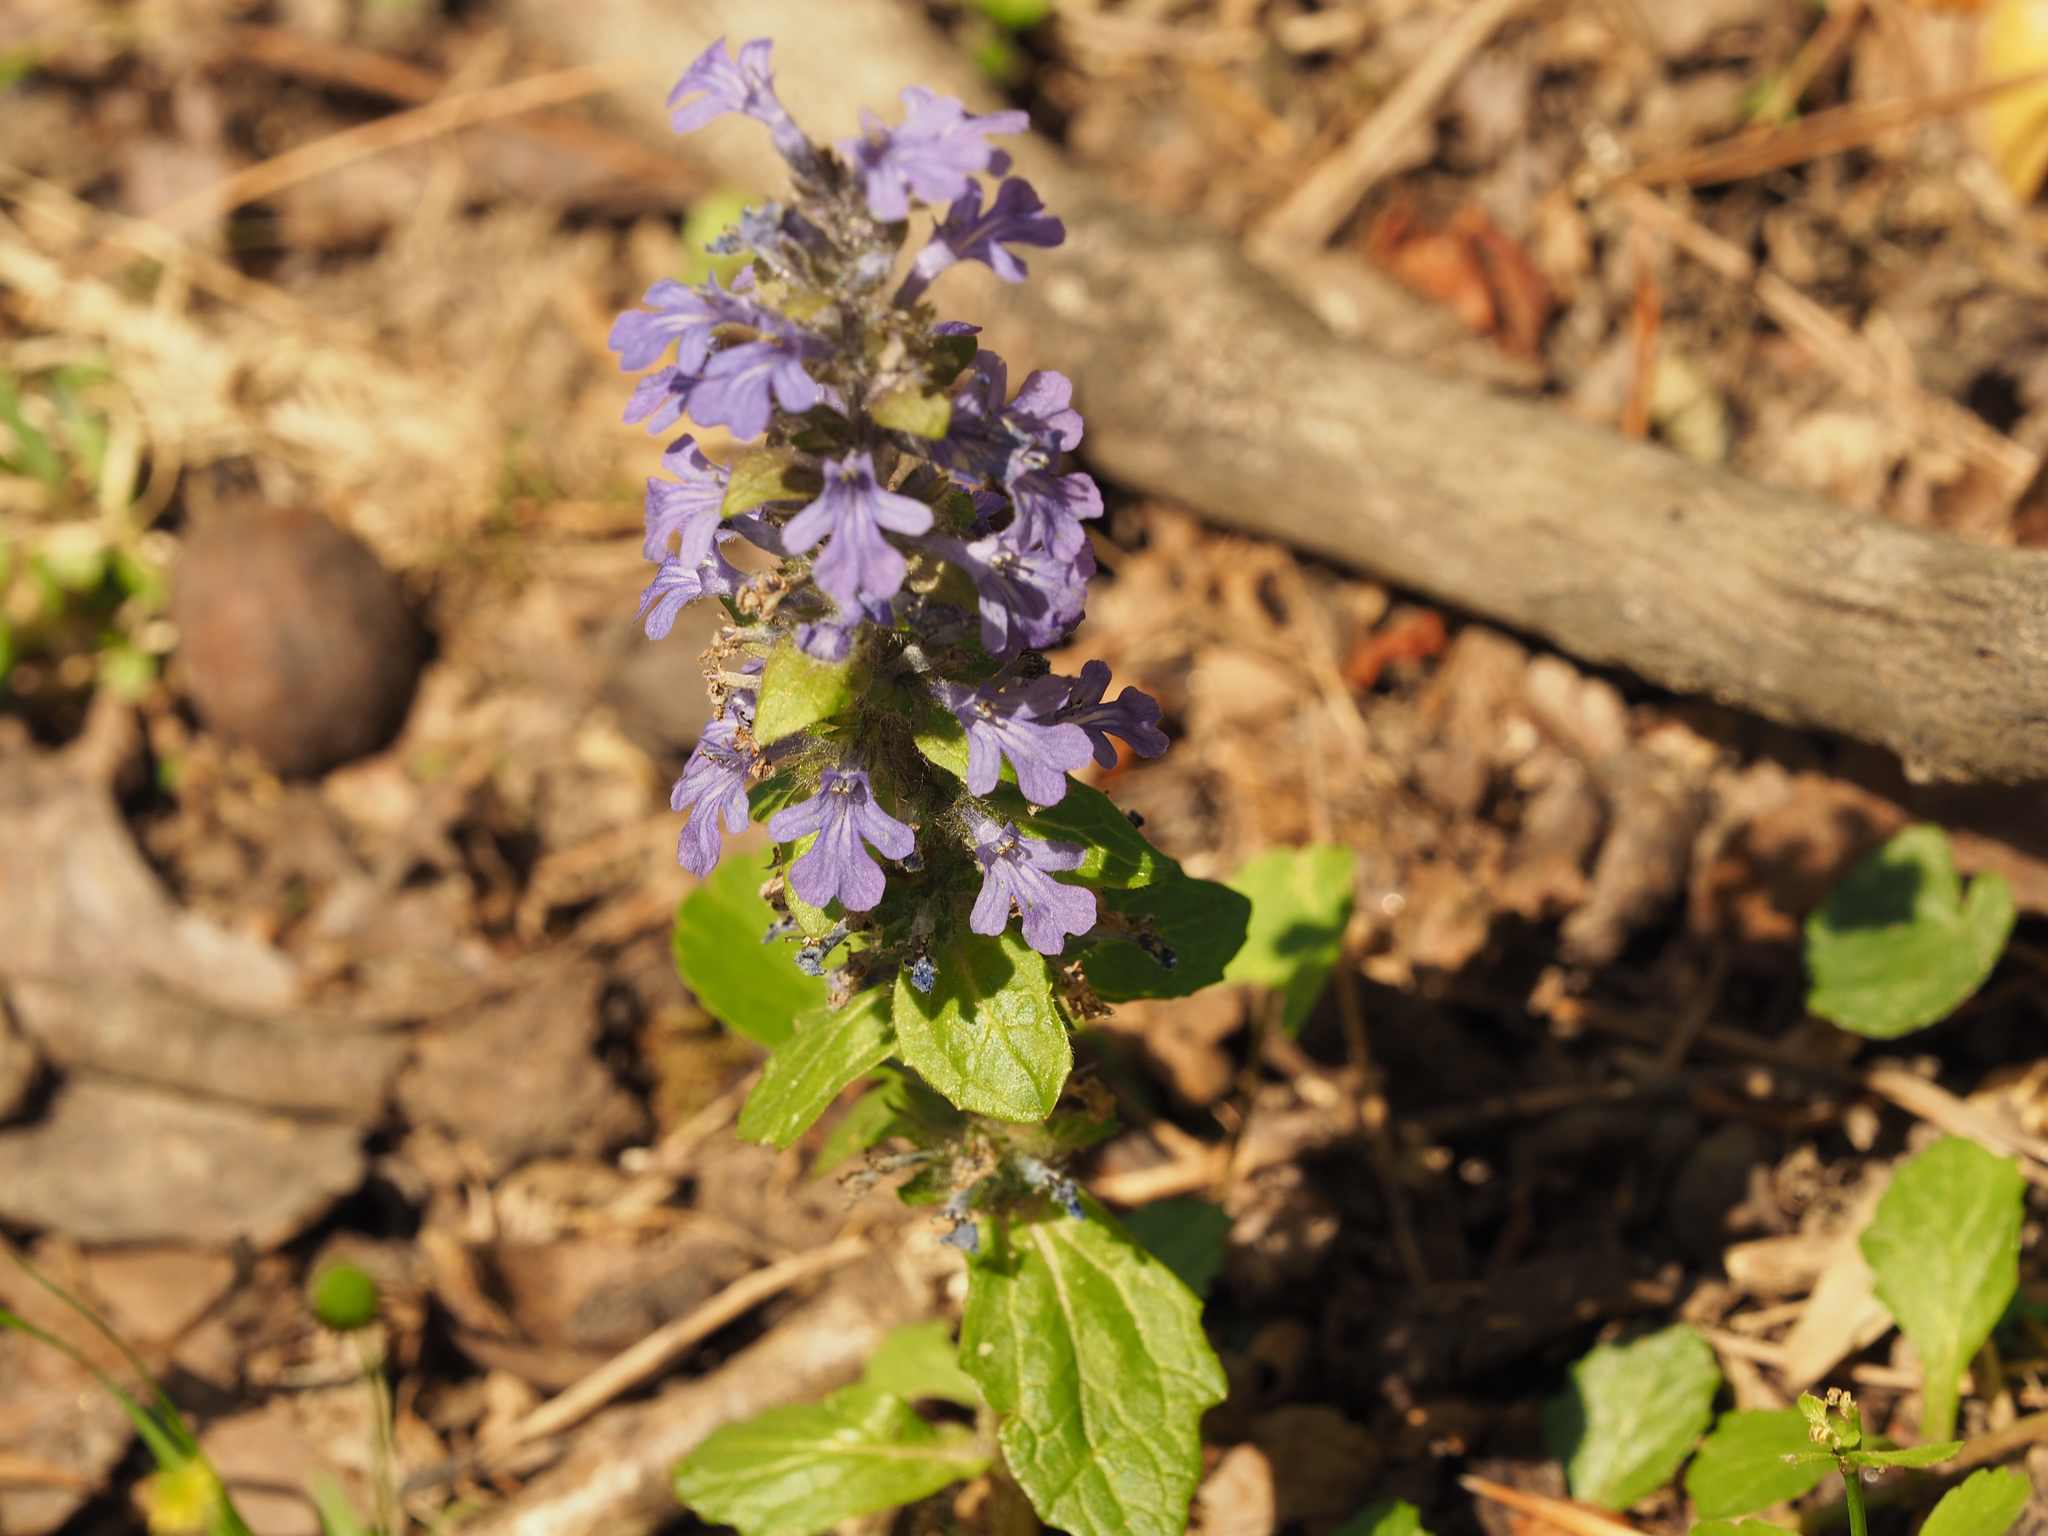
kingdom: Plantae
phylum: Tracheophyta
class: Magnoliopsida
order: Lamiales
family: Lamiaceae
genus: Ajuga
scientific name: Ajuga reptans
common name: Bugle
